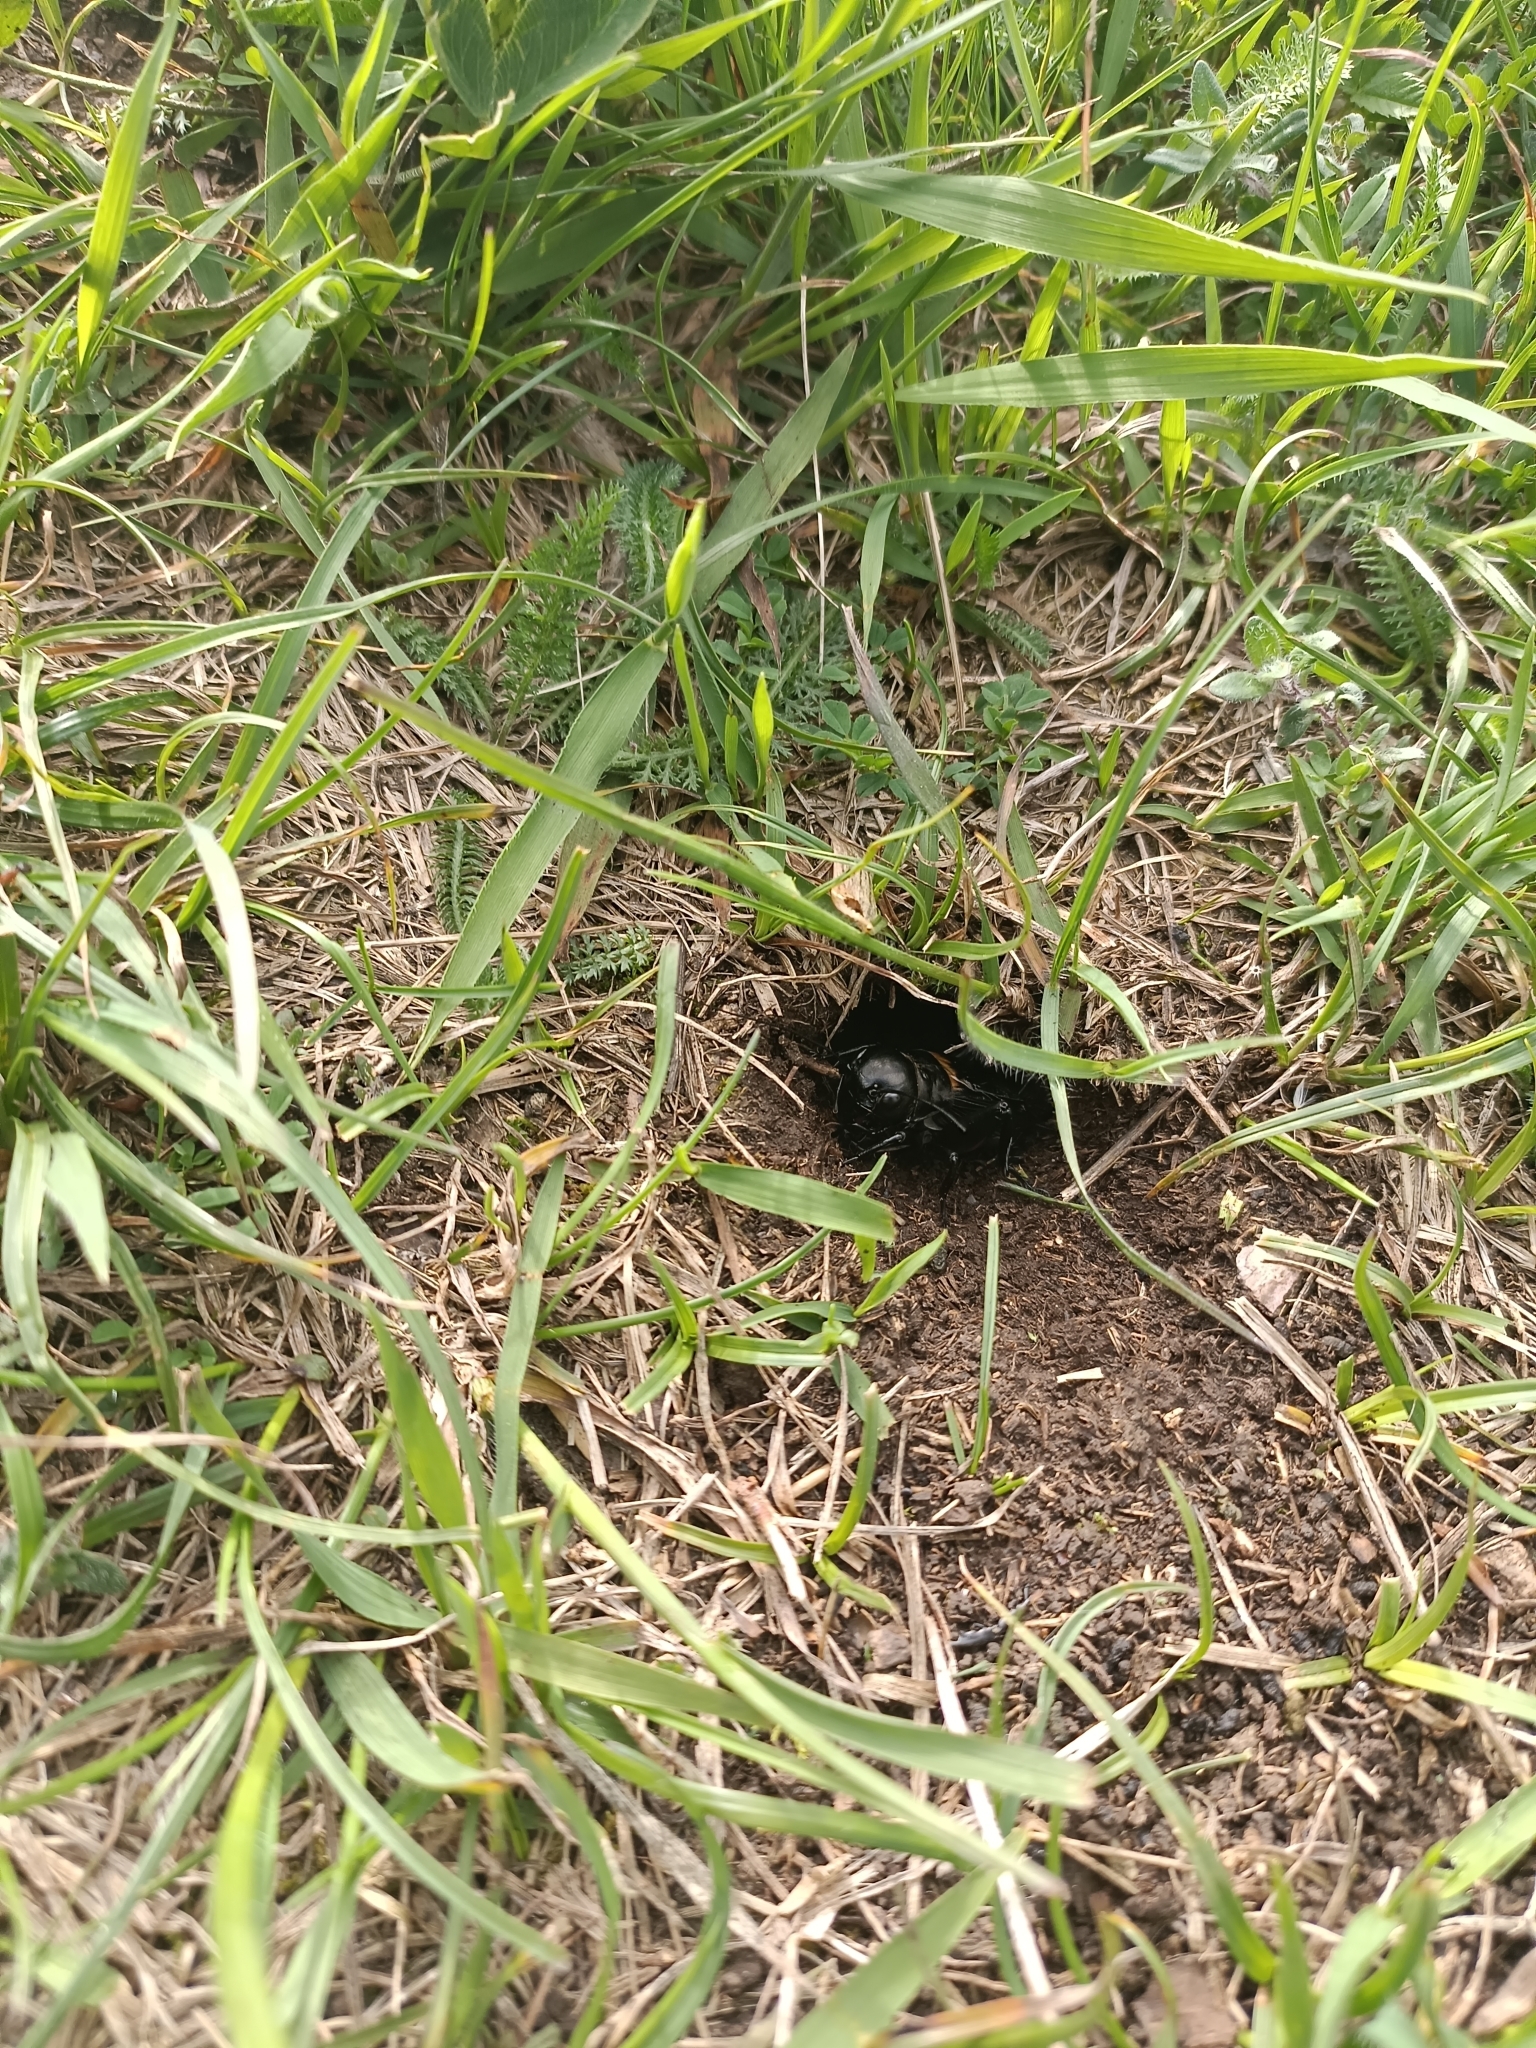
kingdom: Animalia
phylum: Arthropoda
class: Insecta
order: Orthoptera
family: Gryllidae
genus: Gryllus
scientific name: Gryllus campestris
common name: Field cricket
